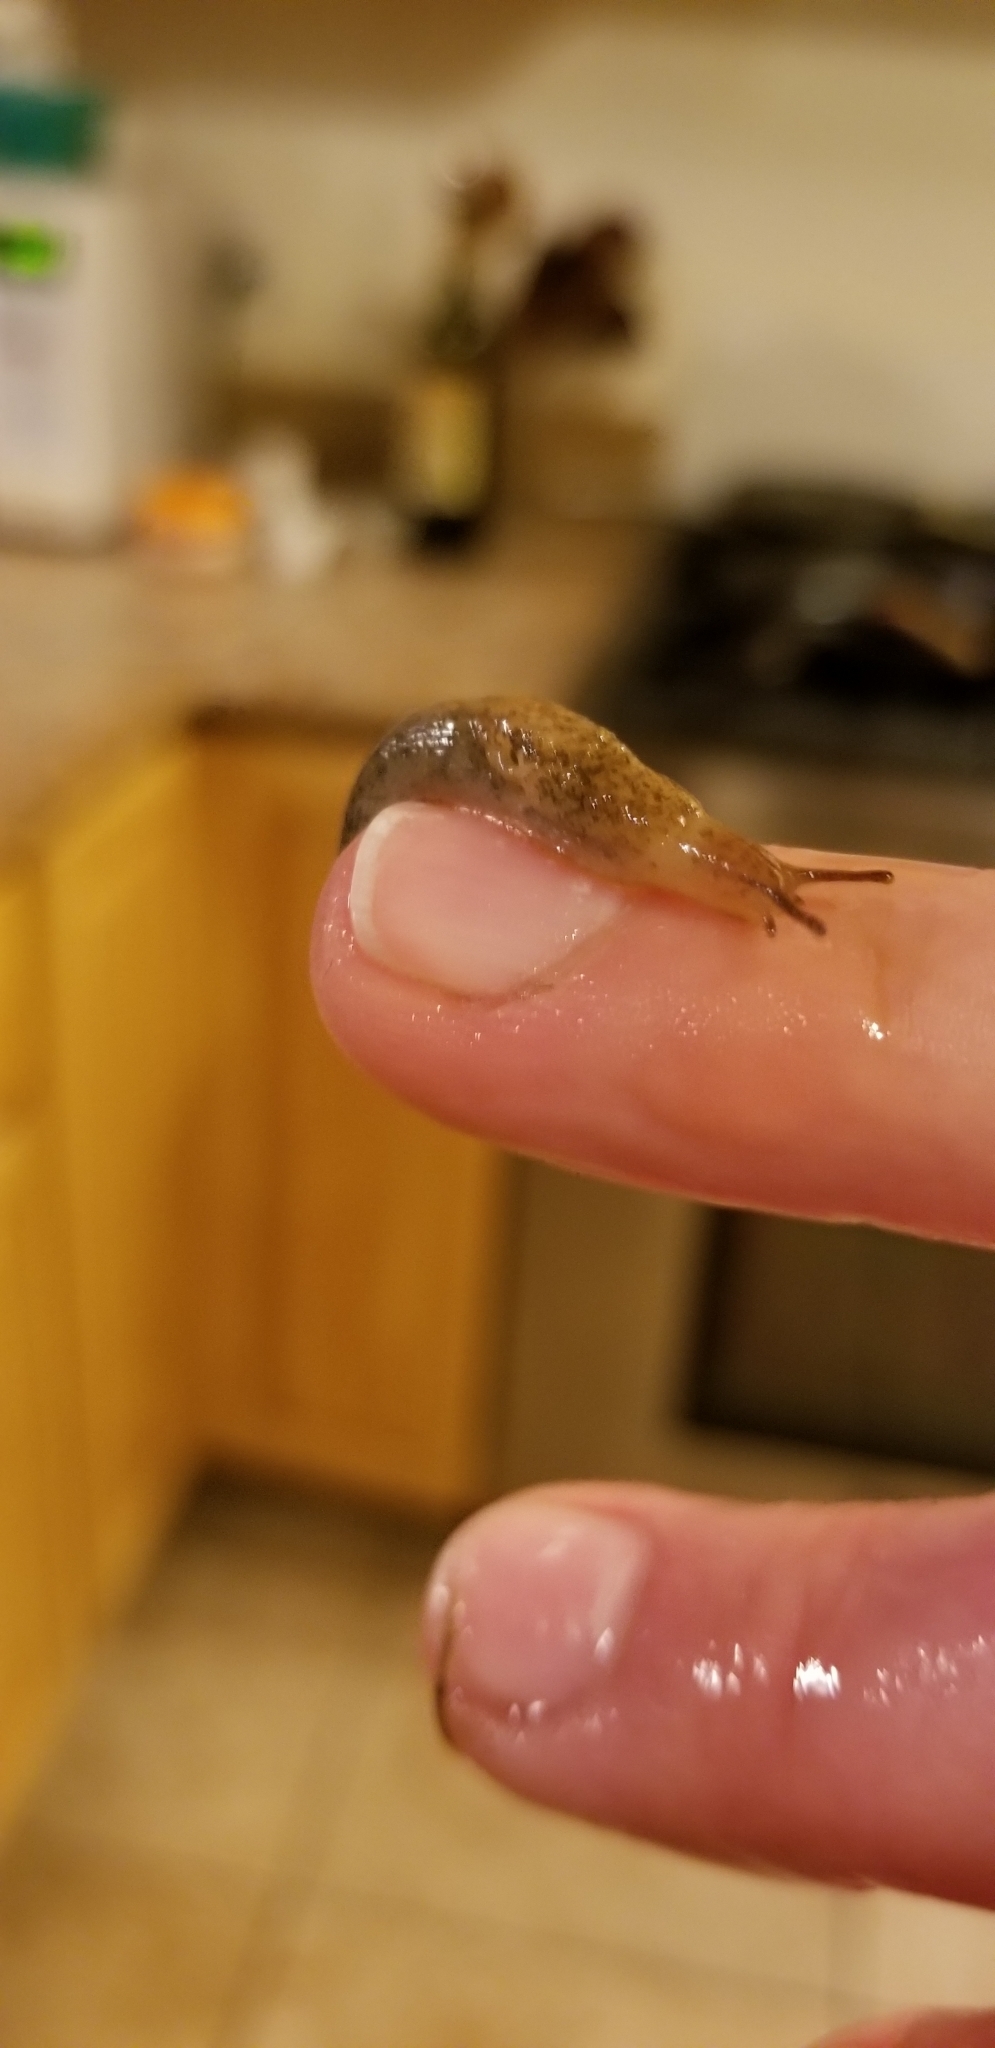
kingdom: Animalia
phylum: Mollusca
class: Gastropoda
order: Stylommatophora
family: Agriolimacidae
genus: Deroceras
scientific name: Deroceras reticulatum
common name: Gray field slug
